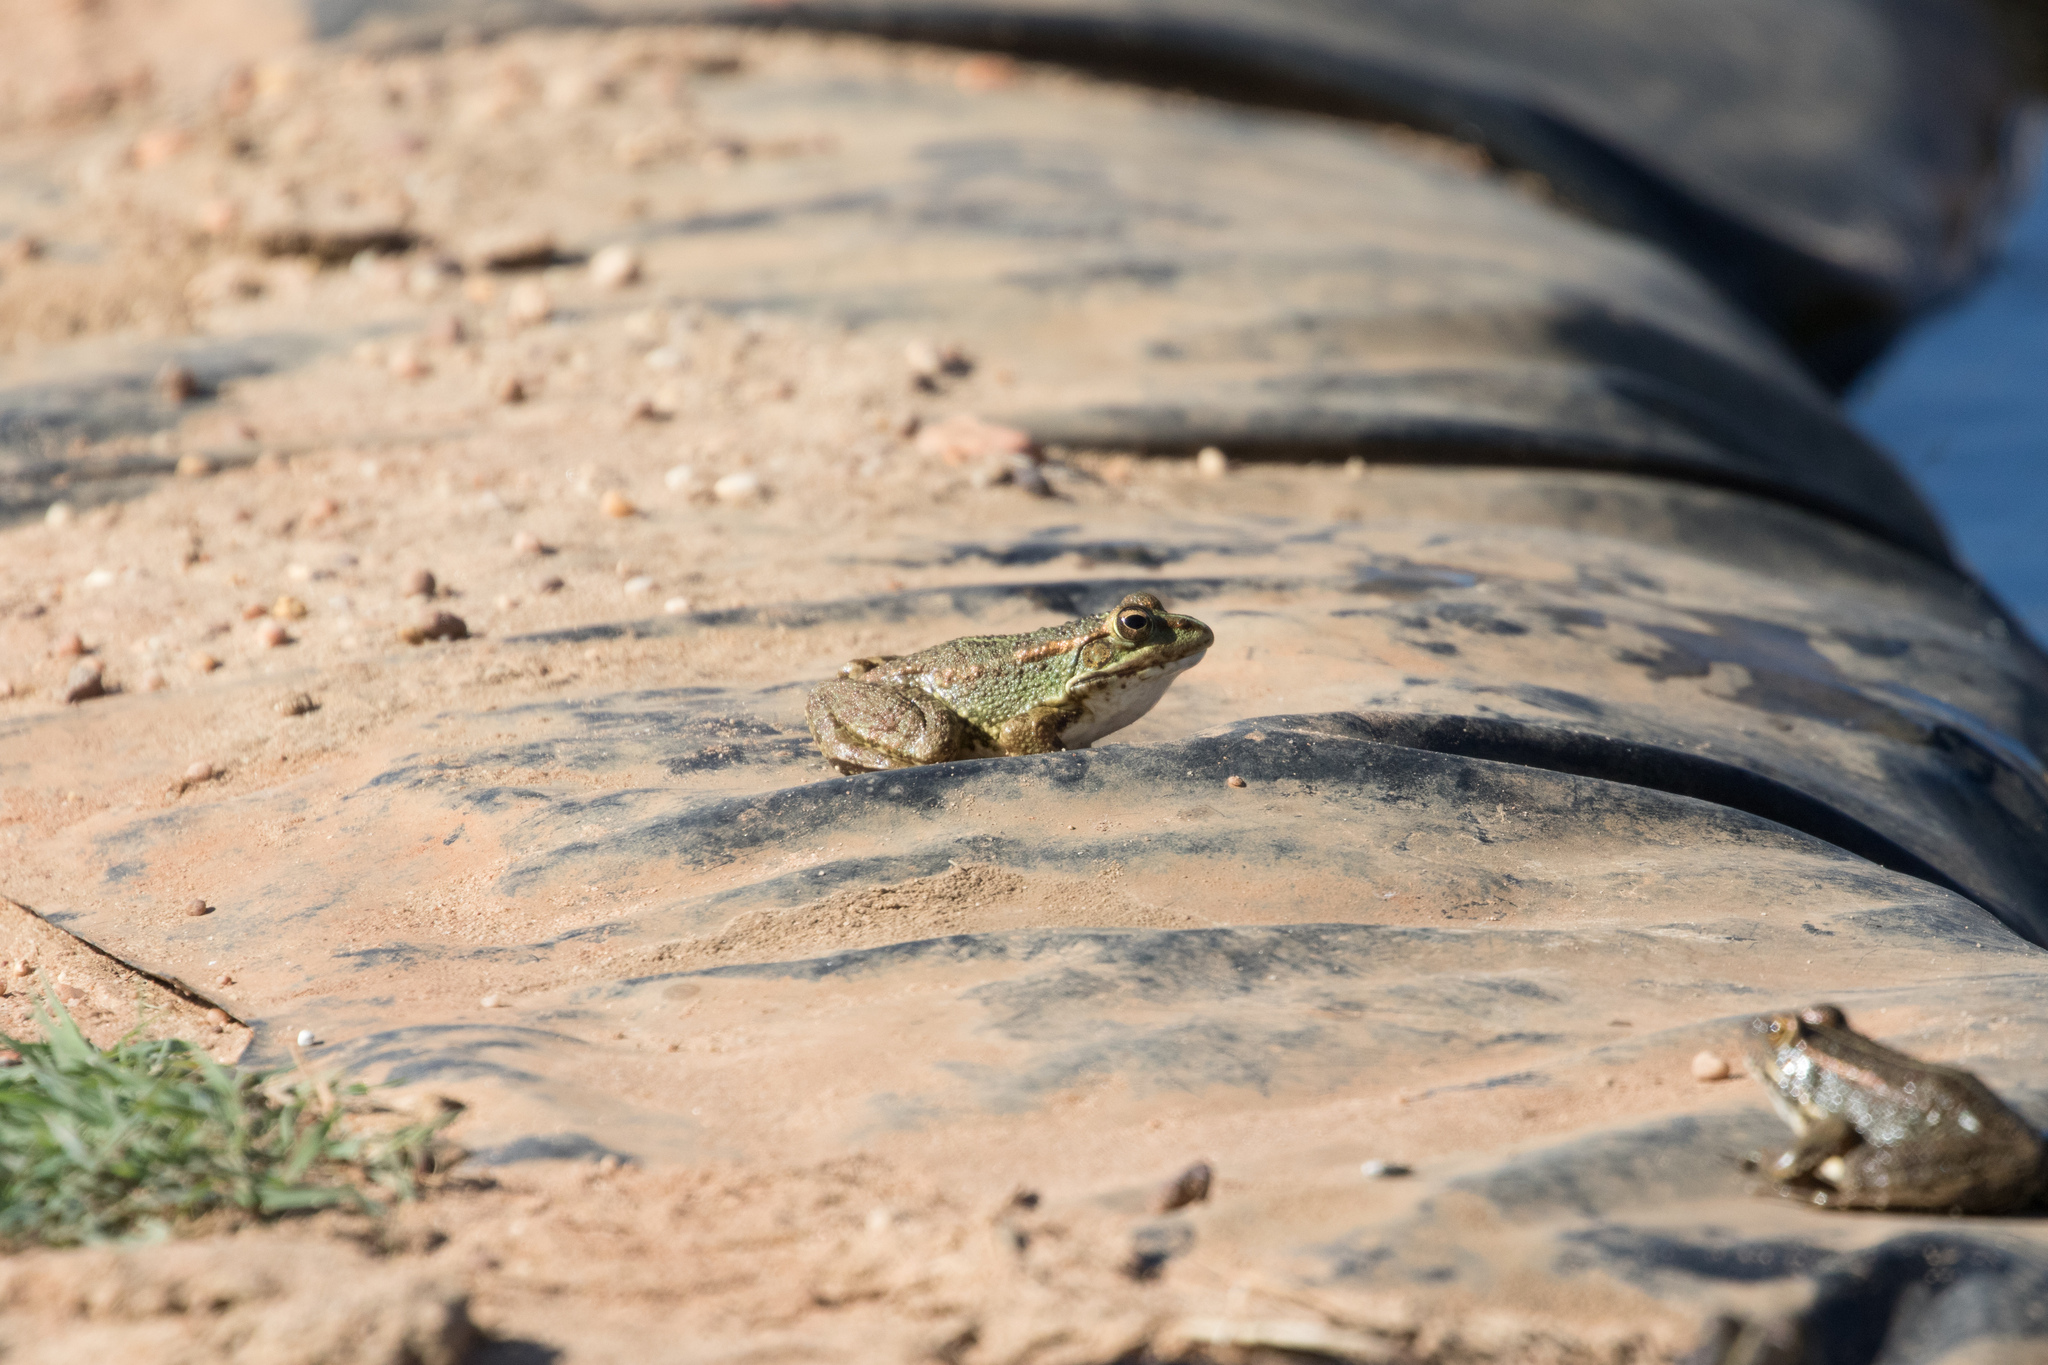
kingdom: Animalia
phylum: Chordata
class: Amphibia
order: Anura
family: Ranidae
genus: Pelophylax
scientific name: Pelophylax perezi
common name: Perez's frog
